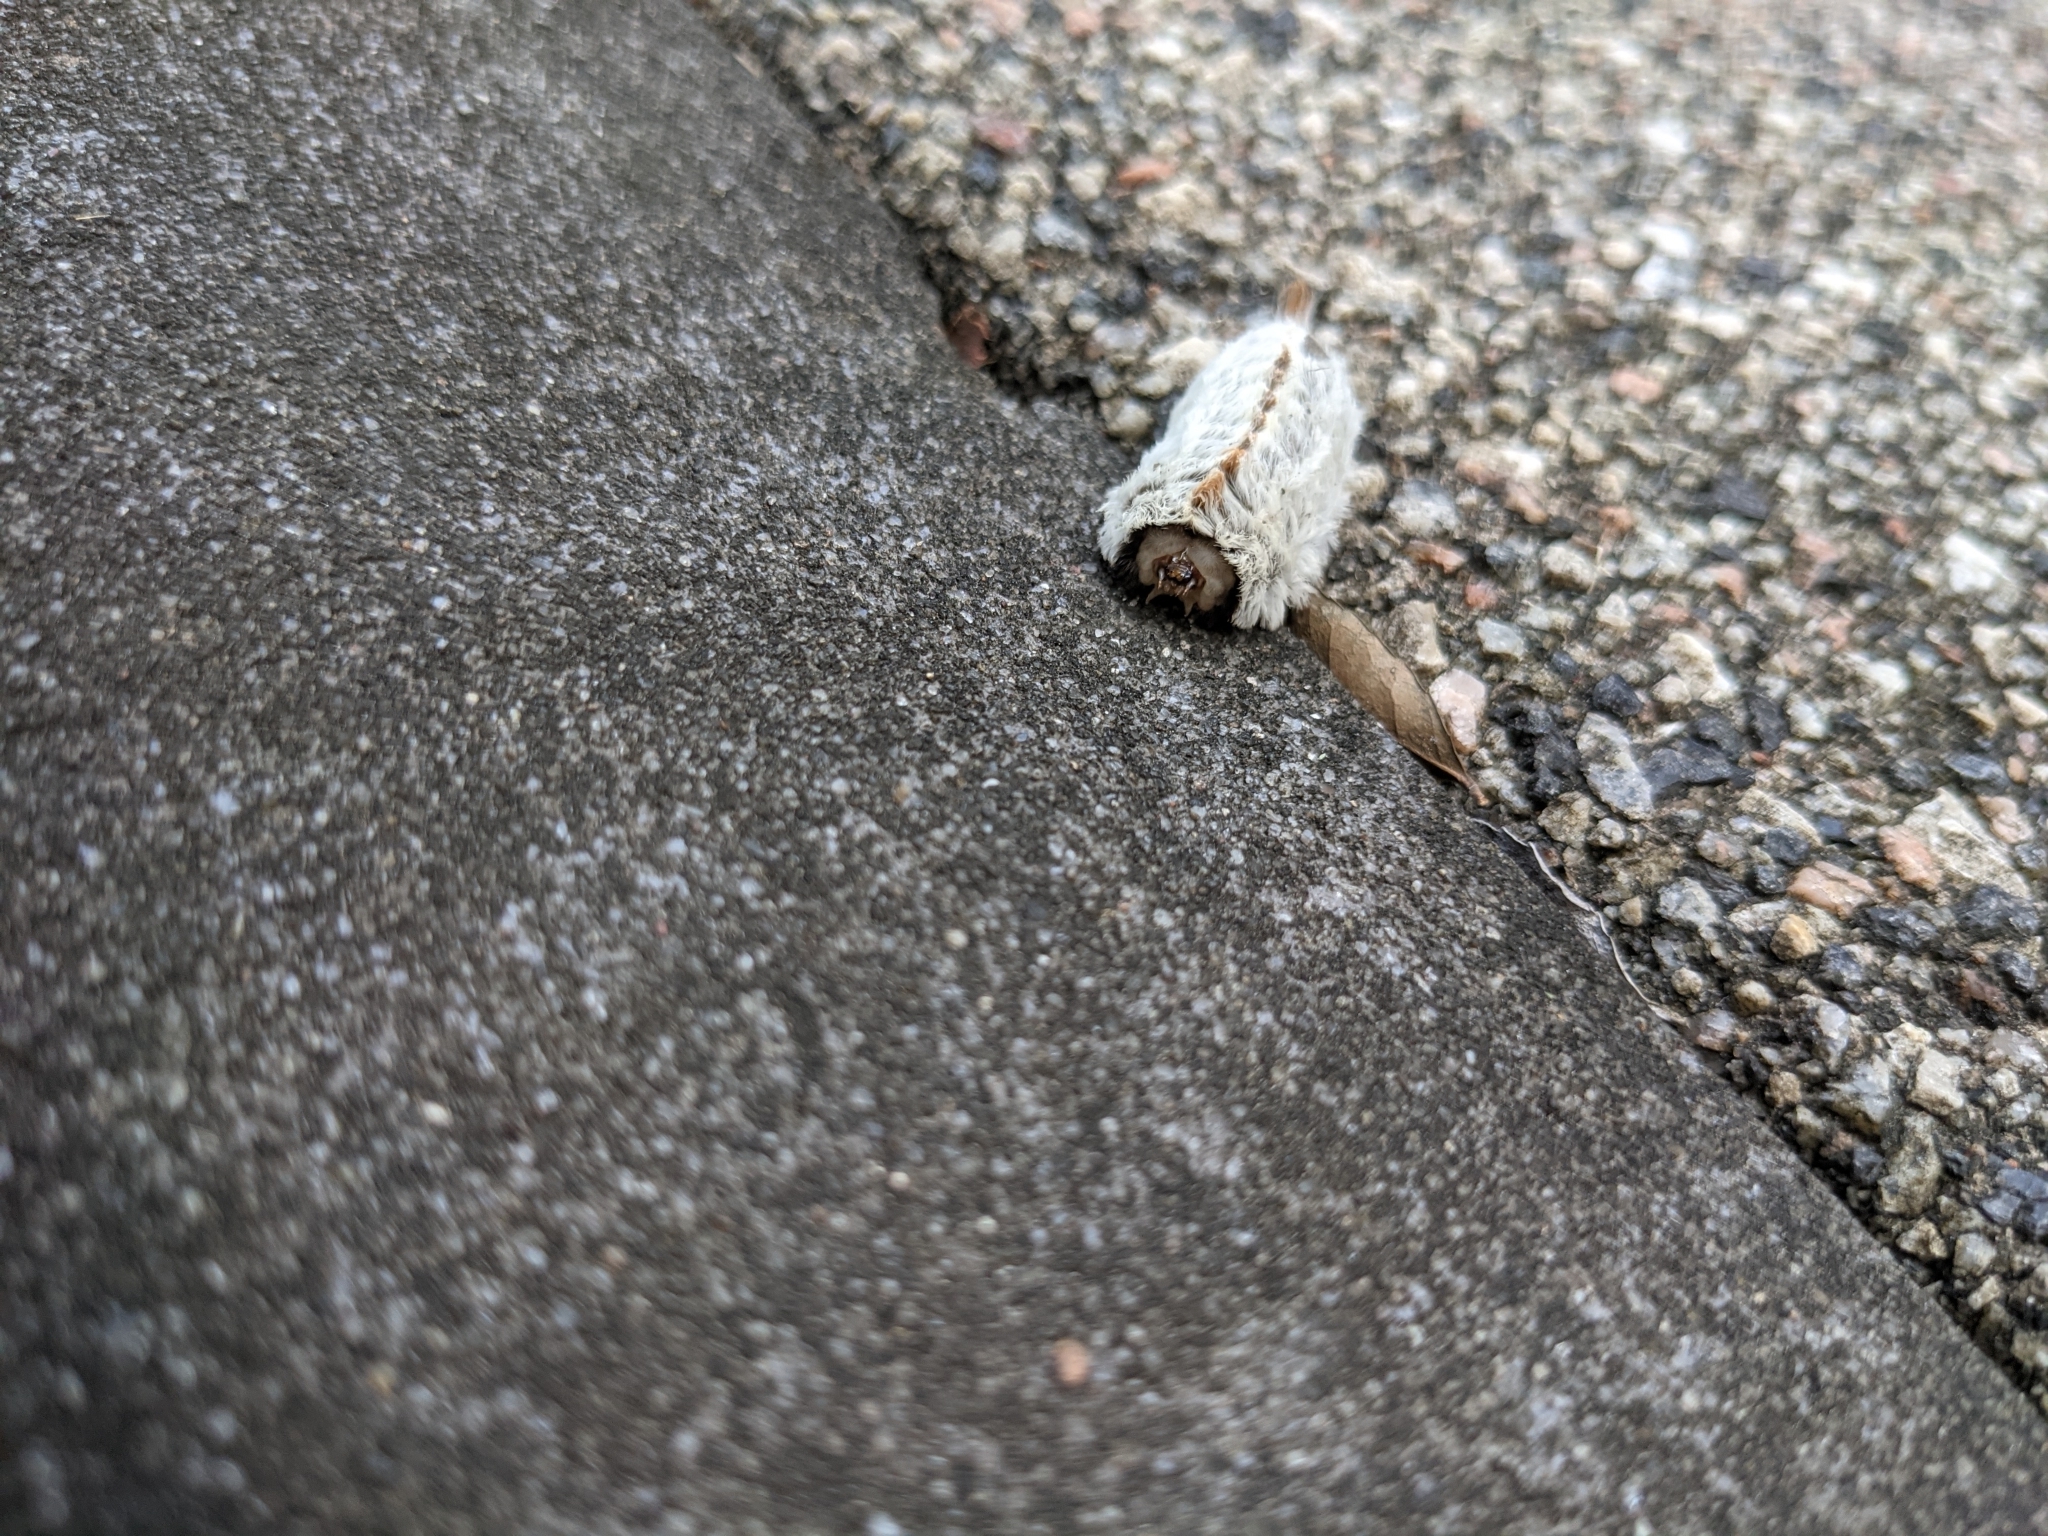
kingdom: Animalia
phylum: Arthropoda
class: Insecta
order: Lepidoptera
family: Megalopygidae
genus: Megalopyge
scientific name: Megalopyge opercularis
